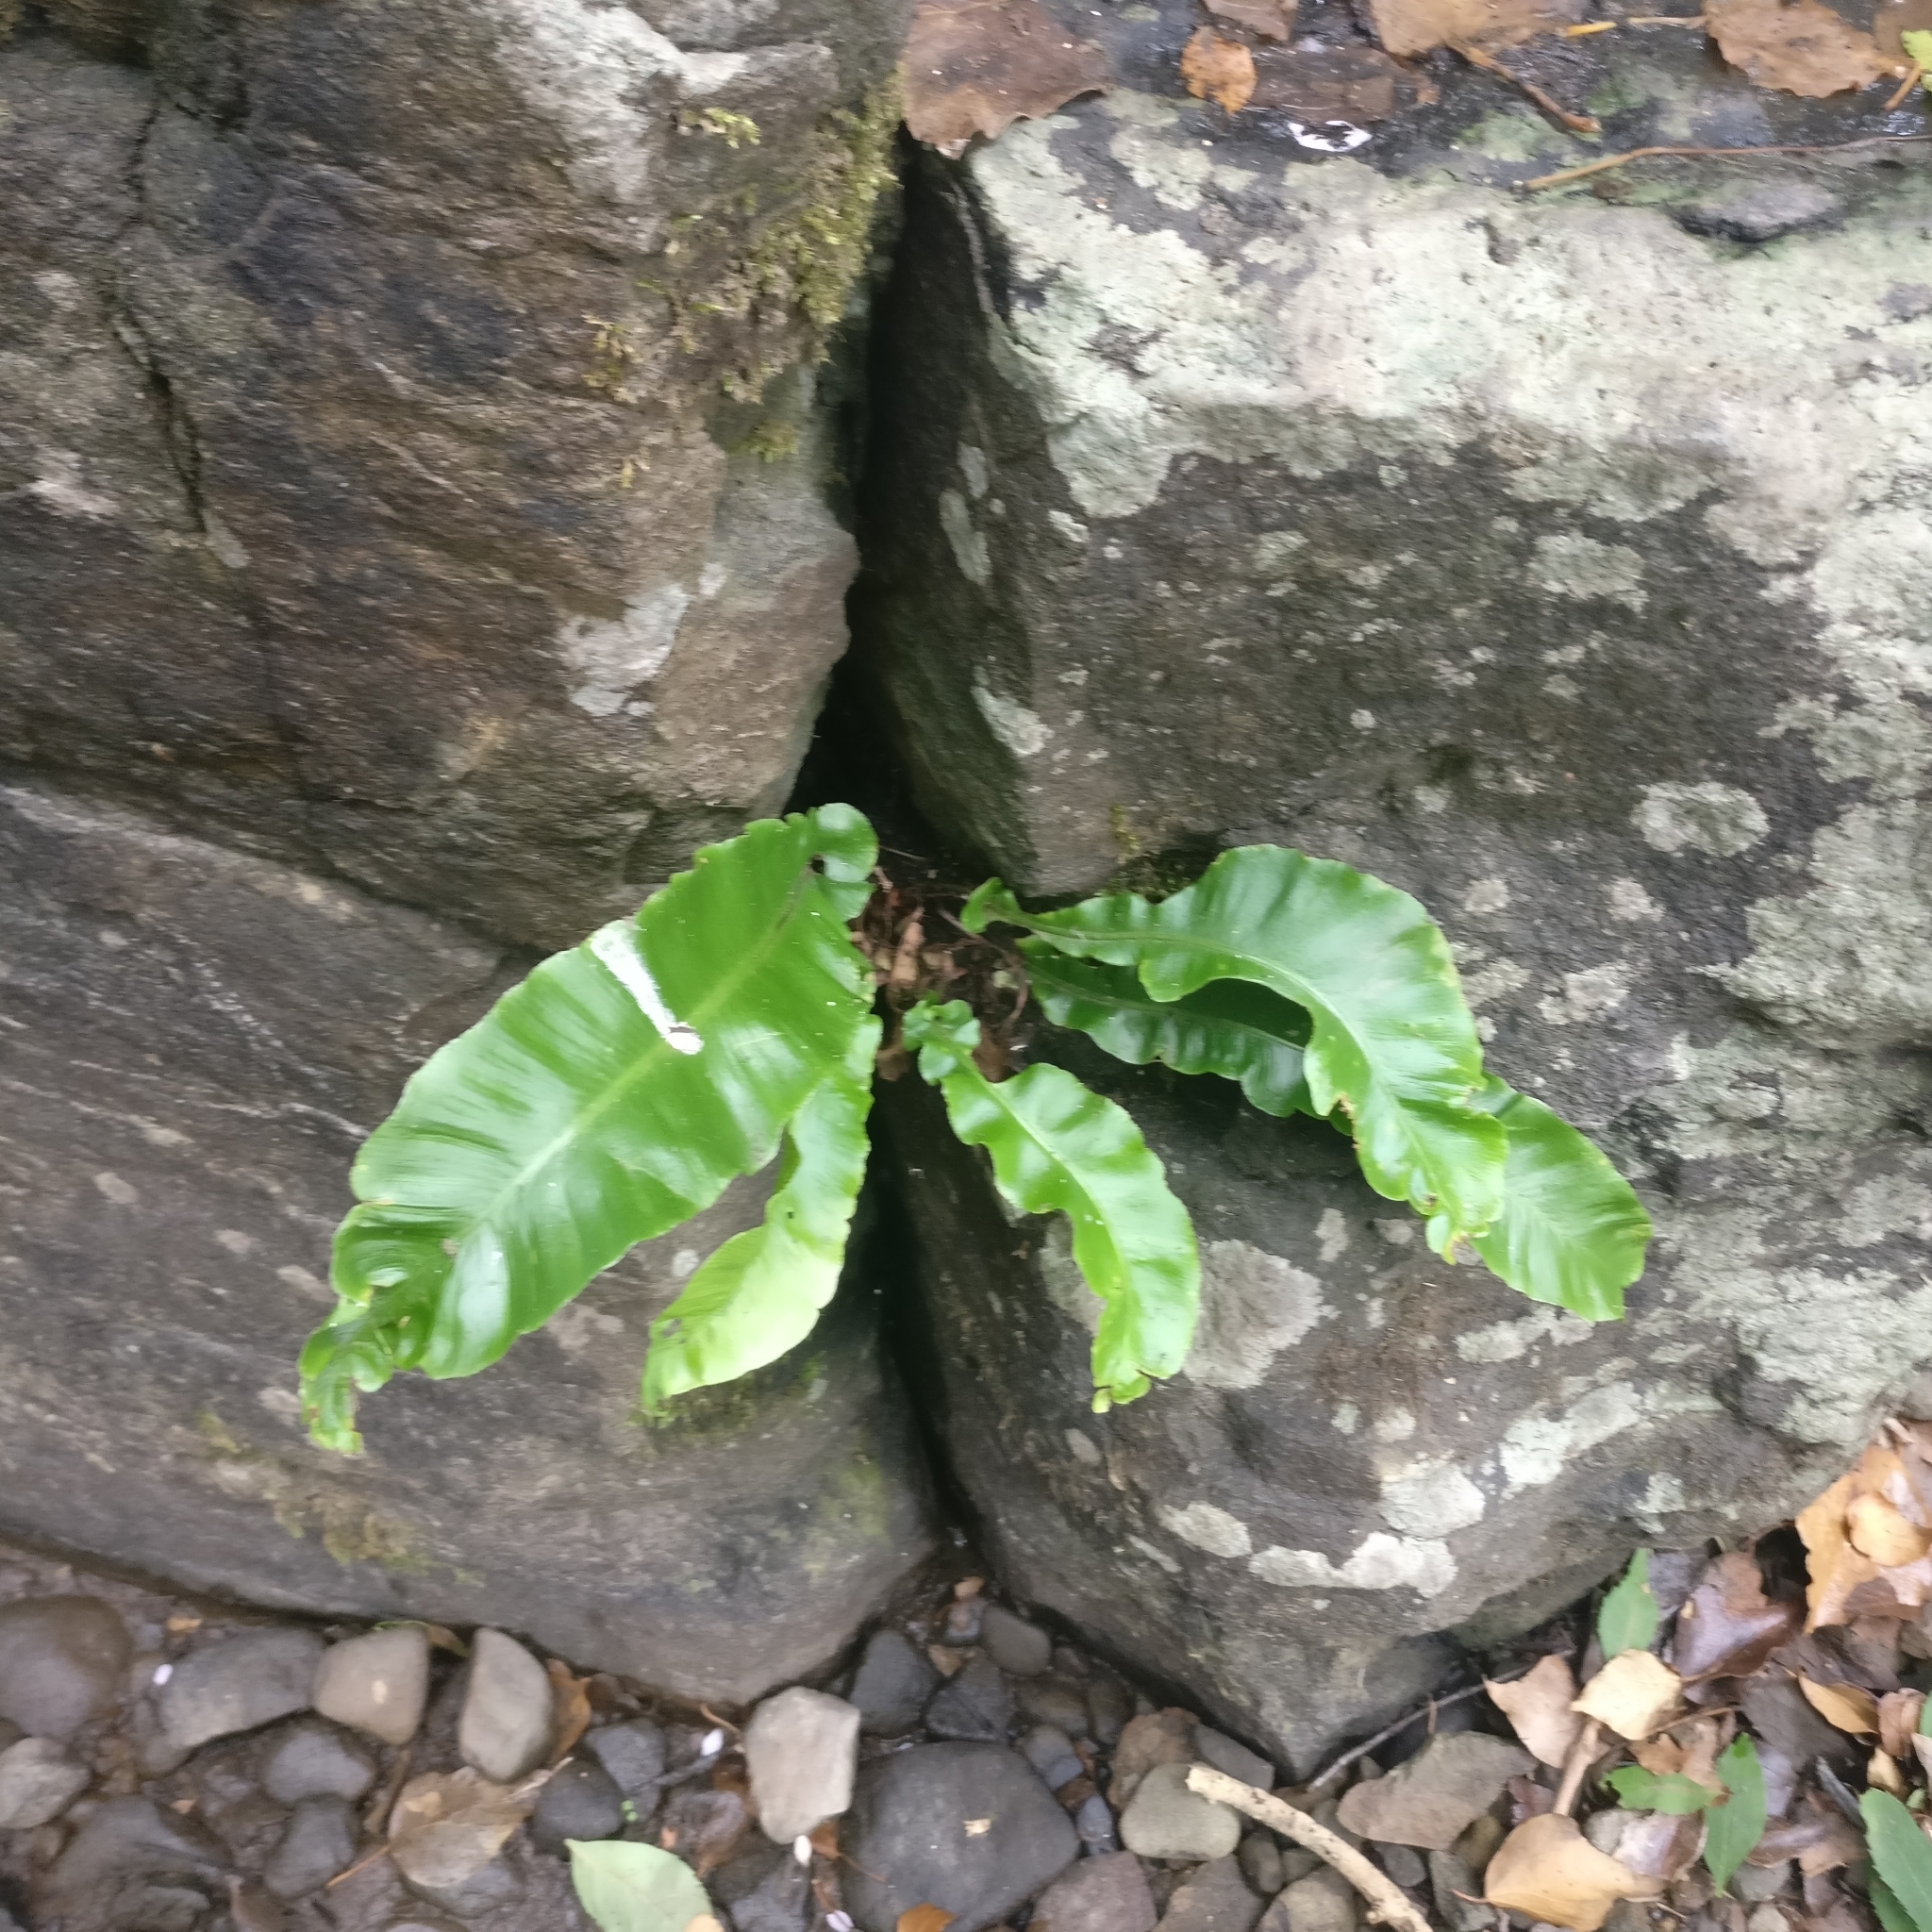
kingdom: Plantae
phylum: Tracheophyta
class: Polypodiopsida
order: Polypodiales
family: Aspleniaceae
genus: Asplenium
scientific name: Asplenium scolopendrium
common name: Hart's-tongue fern
